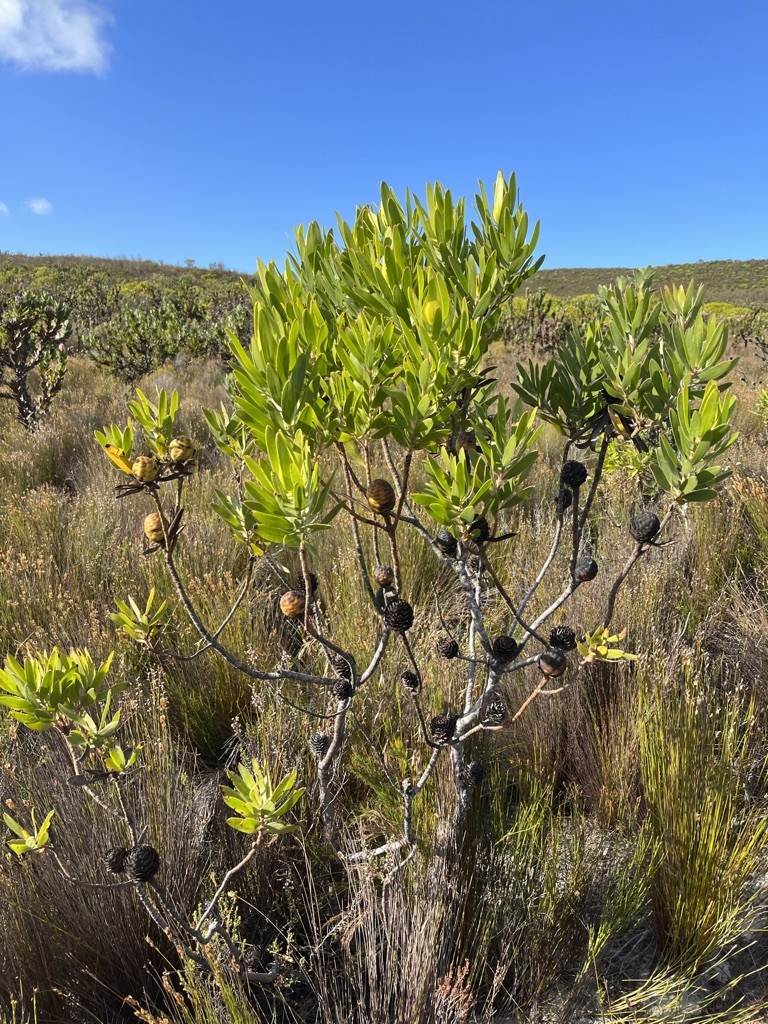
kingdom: Plantae
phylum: Tracheophyta
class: Magnoliopsida
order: Proteales
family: Proteaceae
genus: Leucadendron
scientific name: Leucadendron laureolum
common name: Golden sunshinebush
